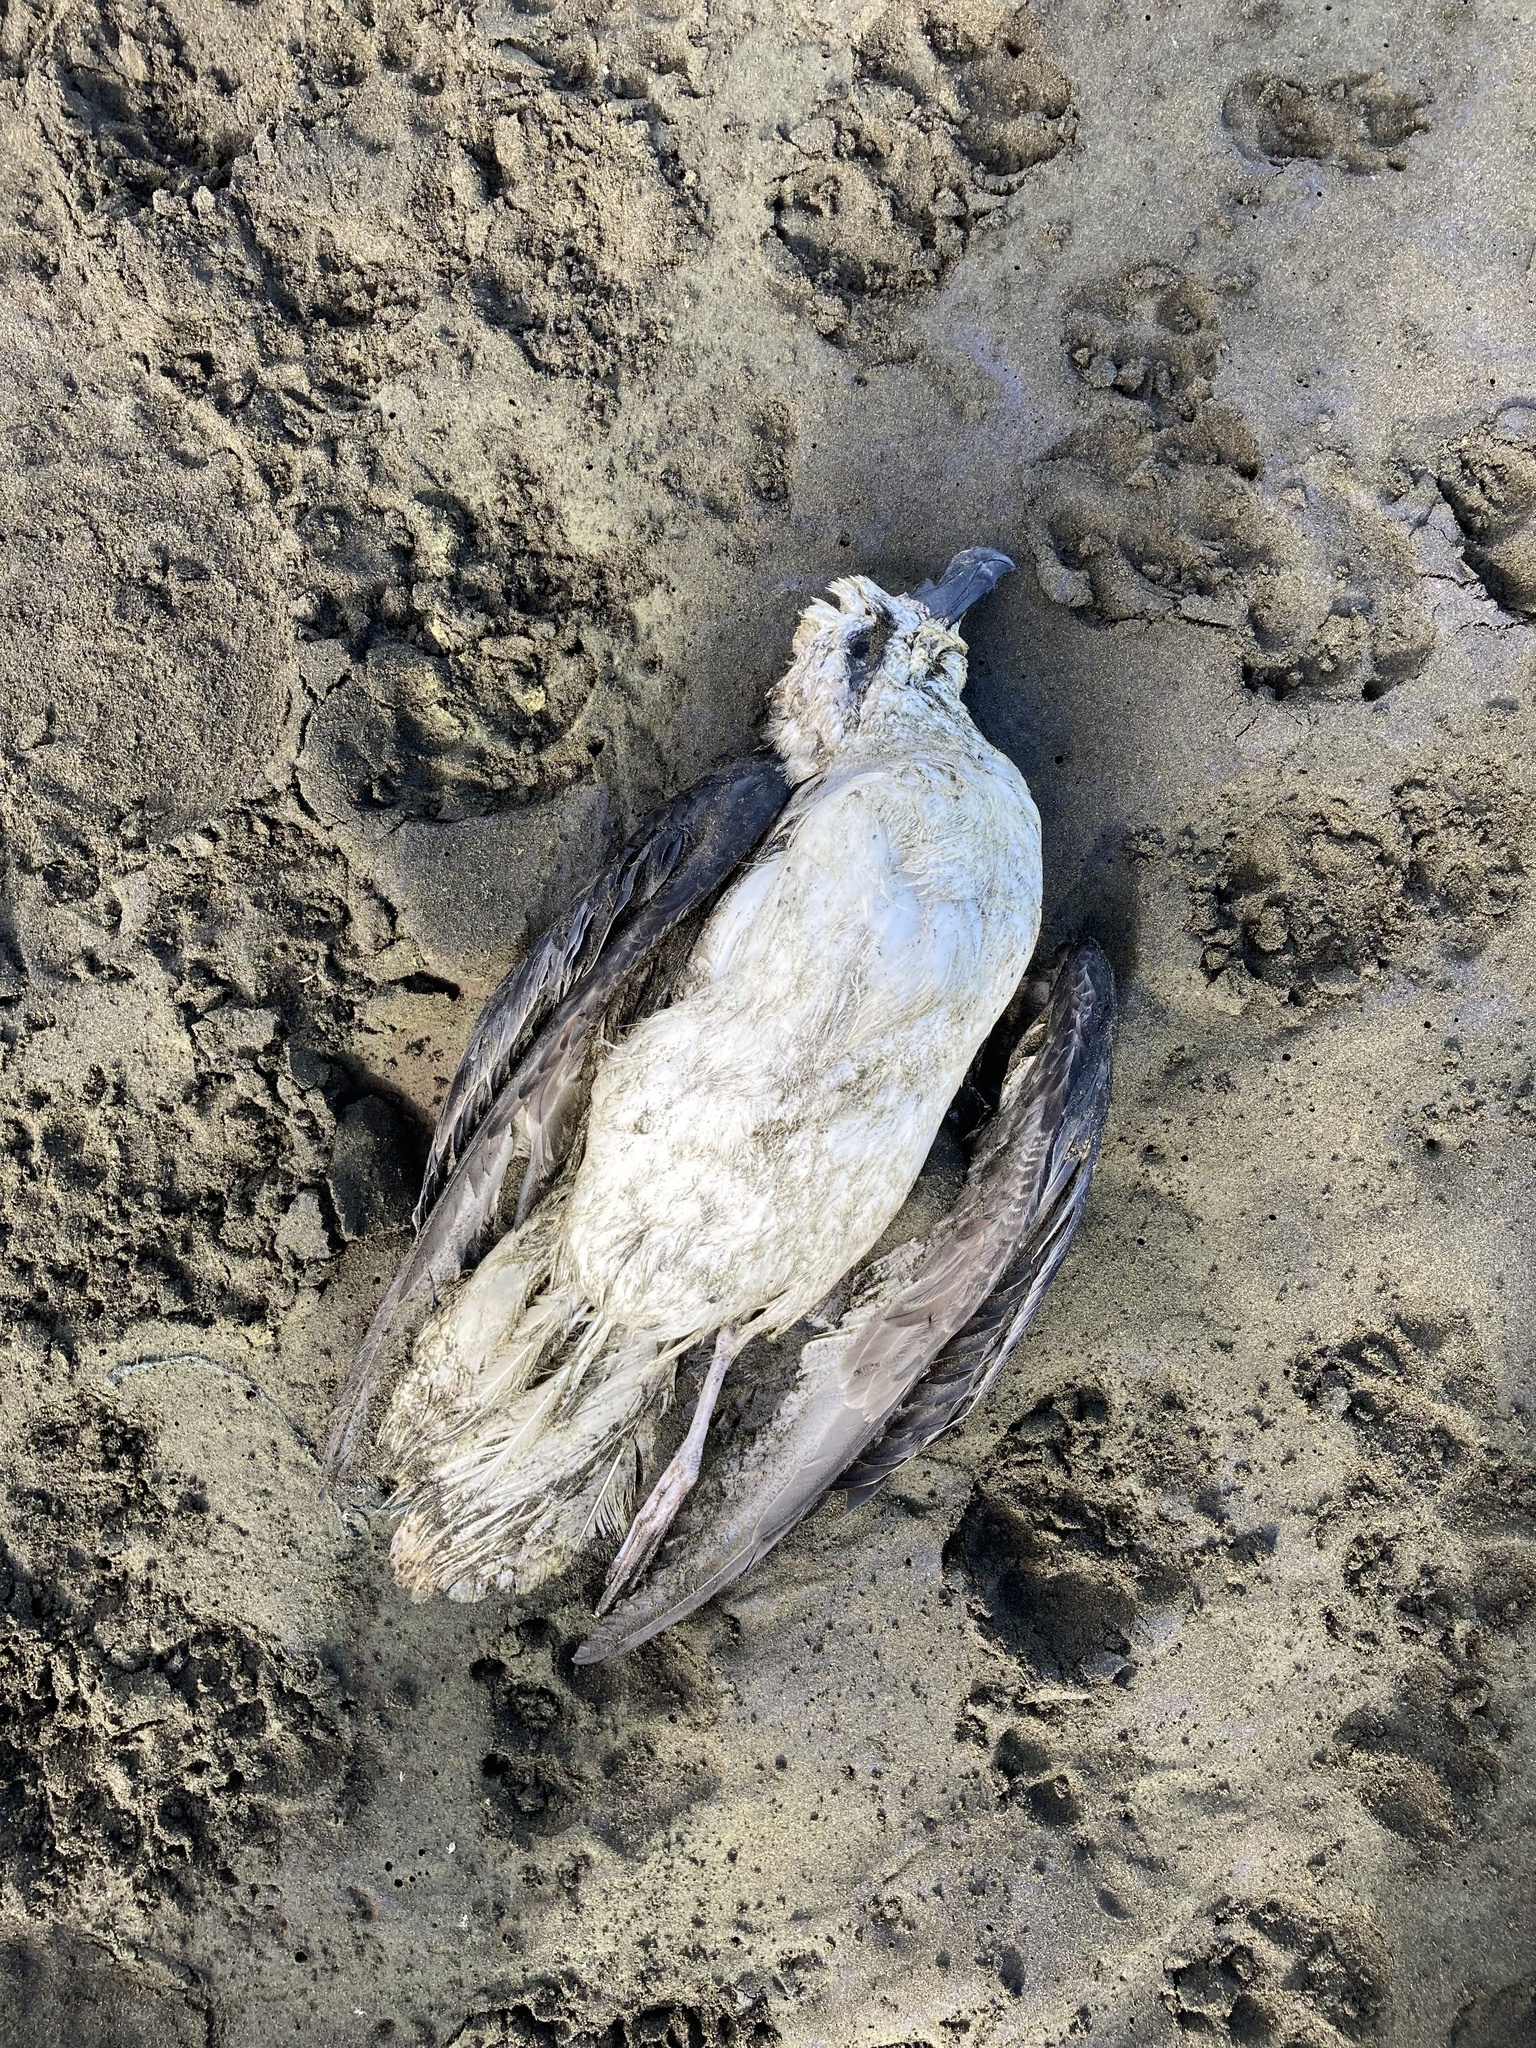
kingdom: Animalia
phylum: Chordata
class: Aves
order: Procellariiformes
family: Procellariidae
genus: Pterodroma
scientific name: Pterodroma lessonii
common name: White-headed petrel
